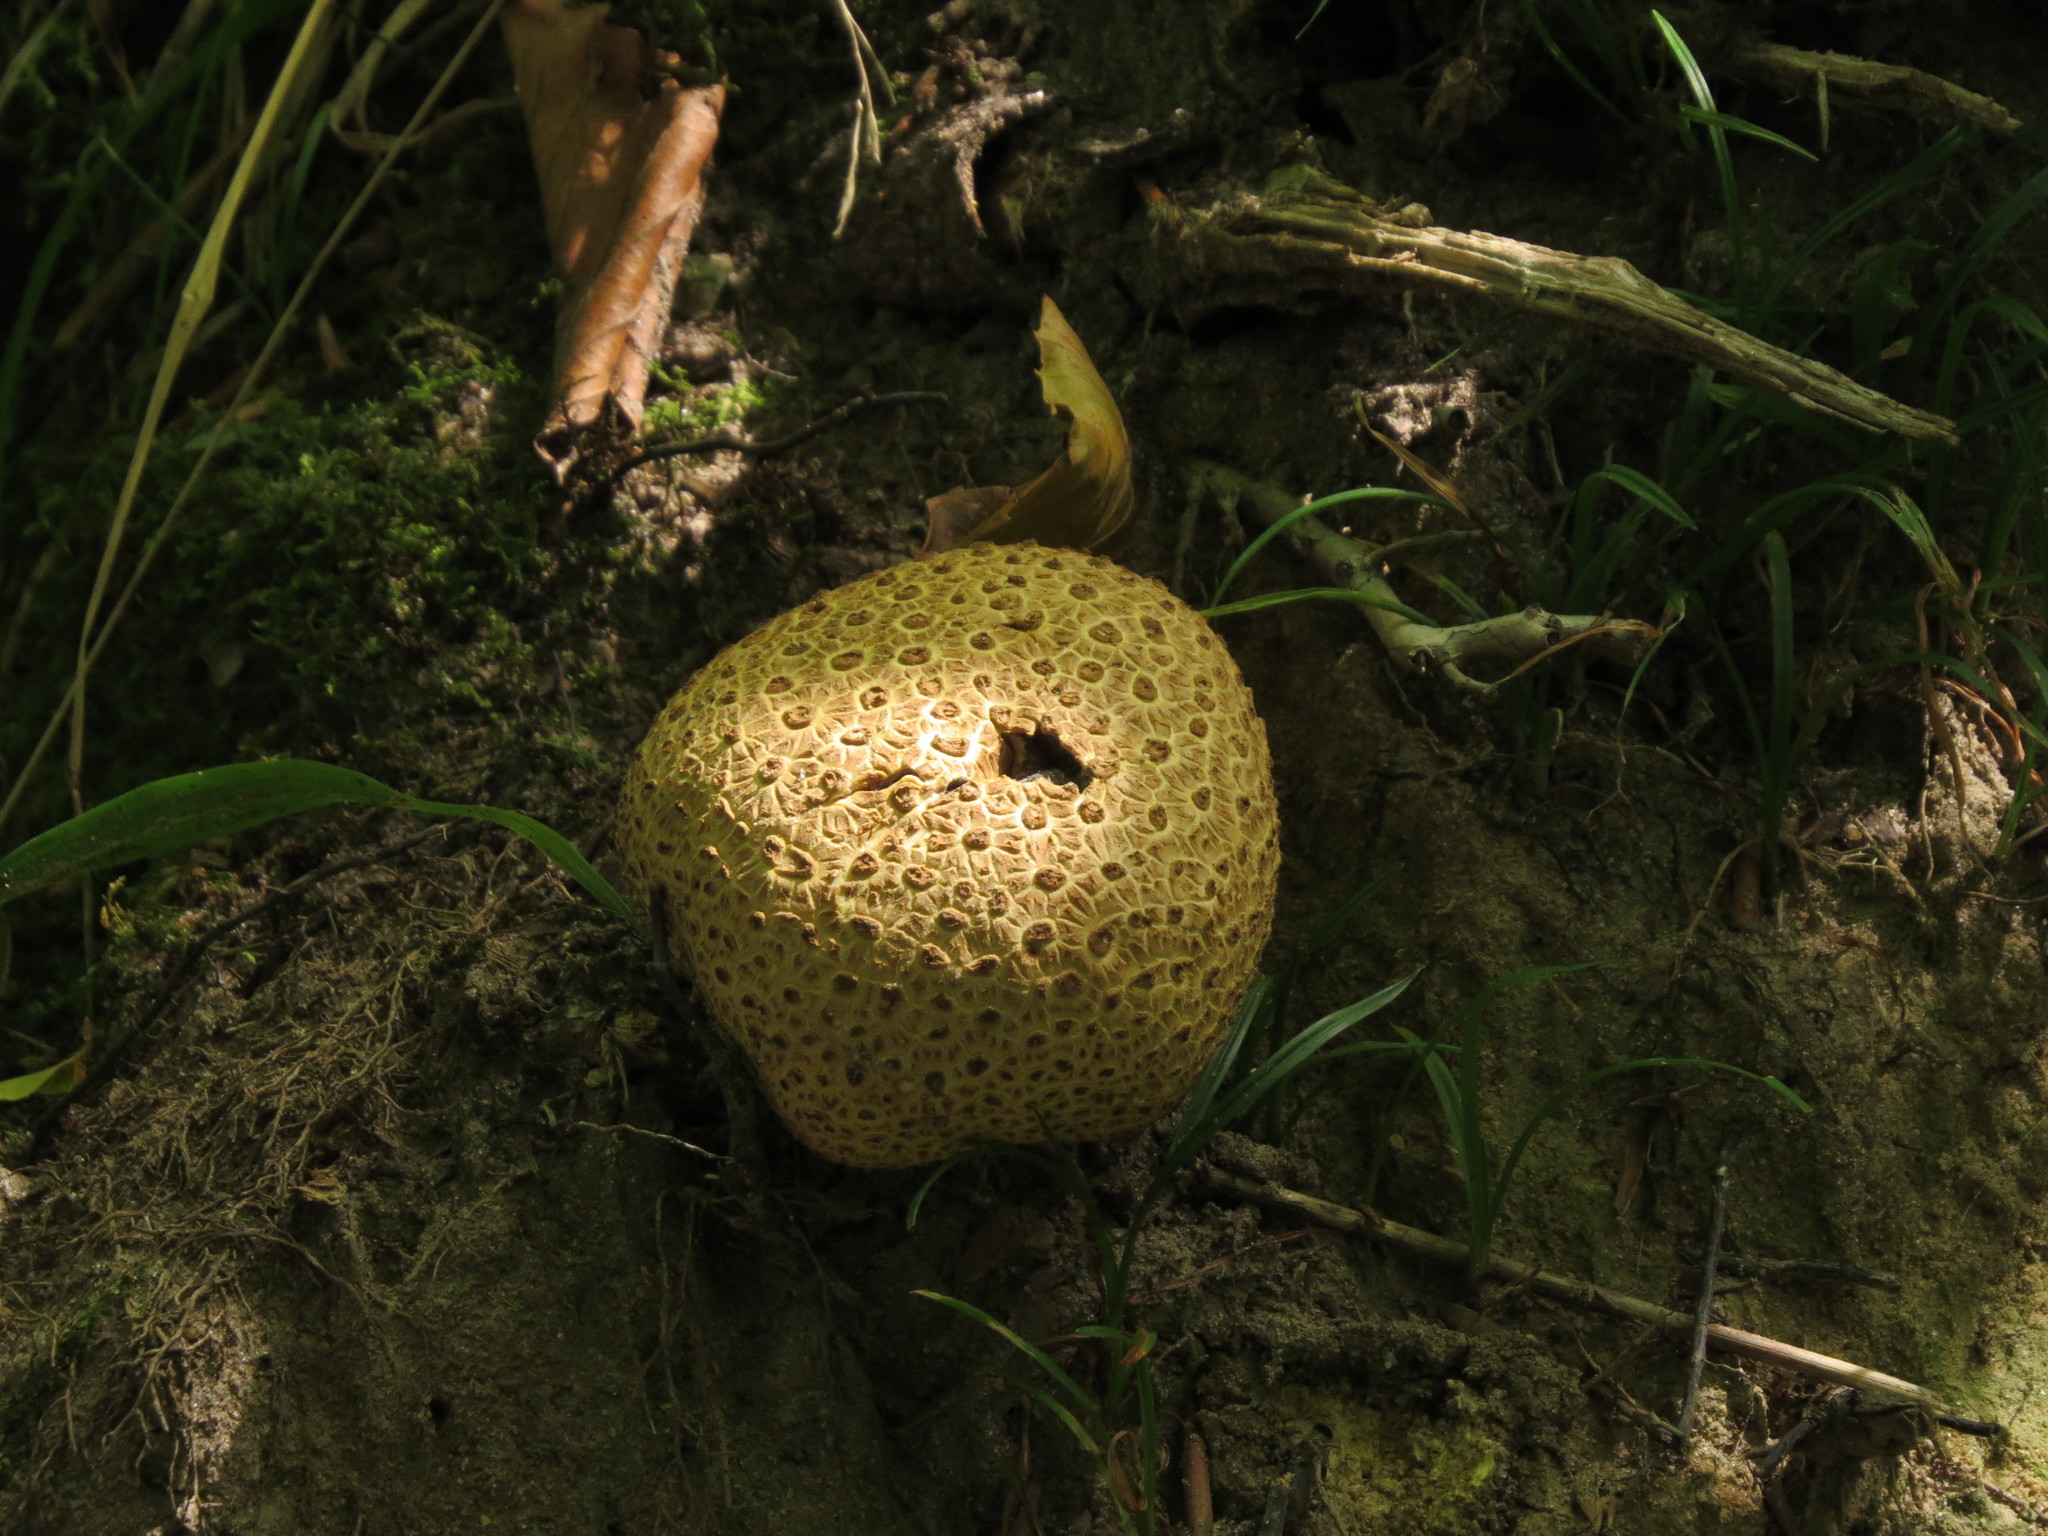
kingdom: Fungi
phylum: Basidiomycota
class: Agaricomycetes
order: Boletales
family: Sclerodermataceae
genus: Scleroderma
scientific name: Scleroderma citrinum
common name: Common earthball
